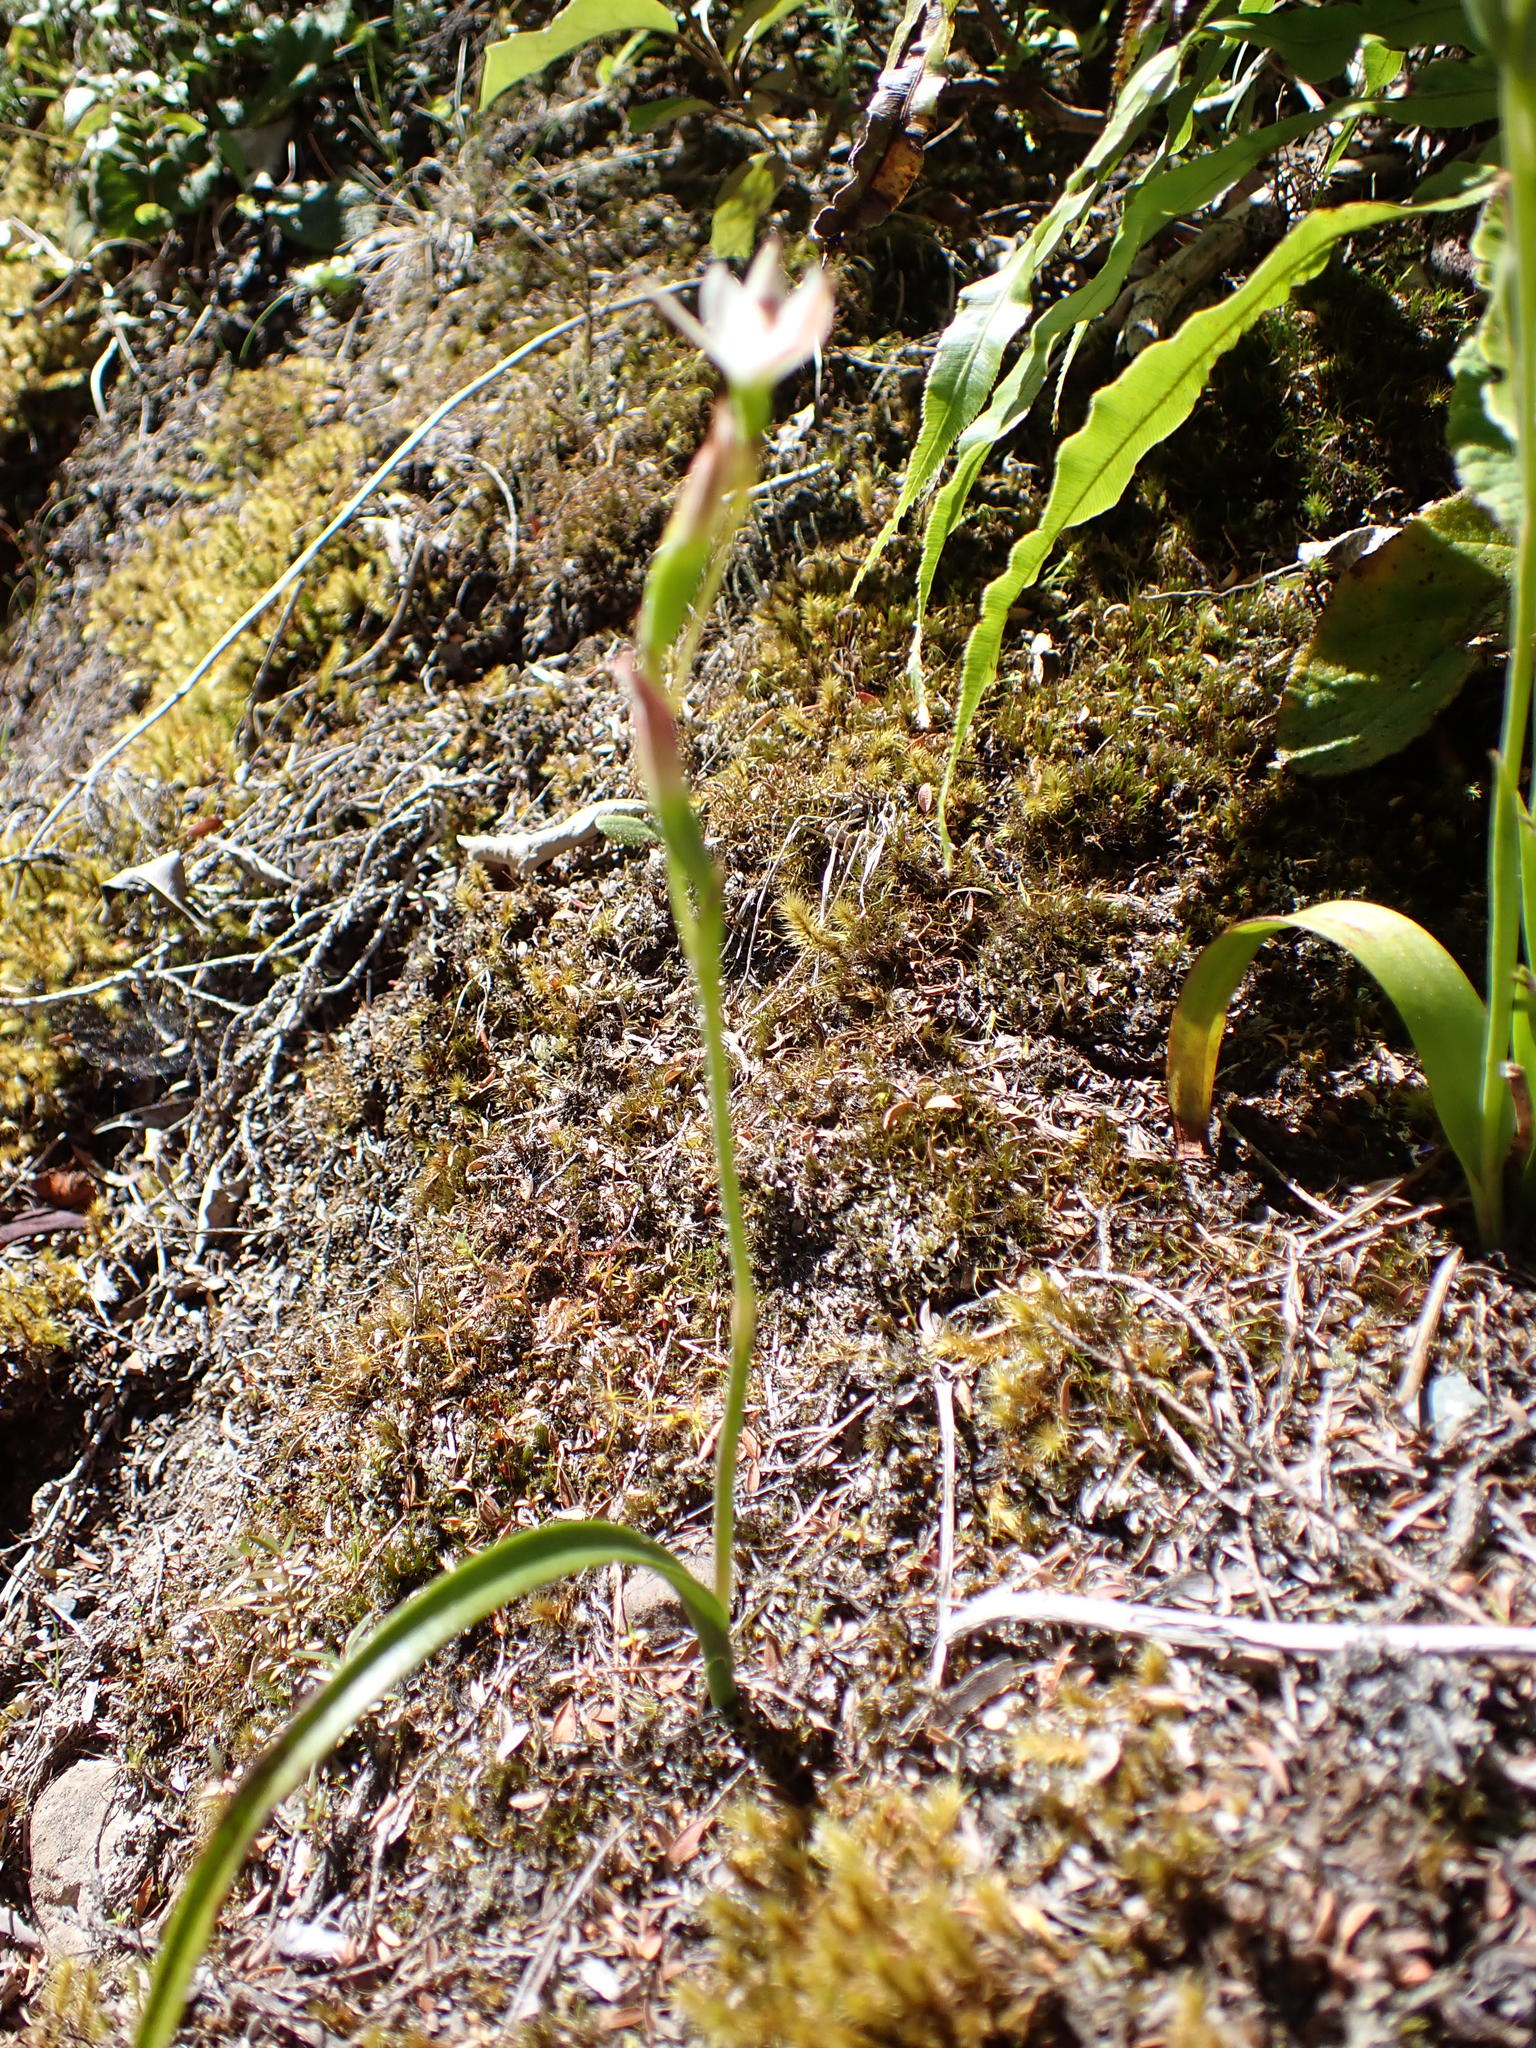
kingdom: Plantae
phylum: Tracheophyta
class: Liliopsida
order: Asparagales
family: Orchidaceae
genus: Thelymitra
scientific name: Thelymitra longifolia
